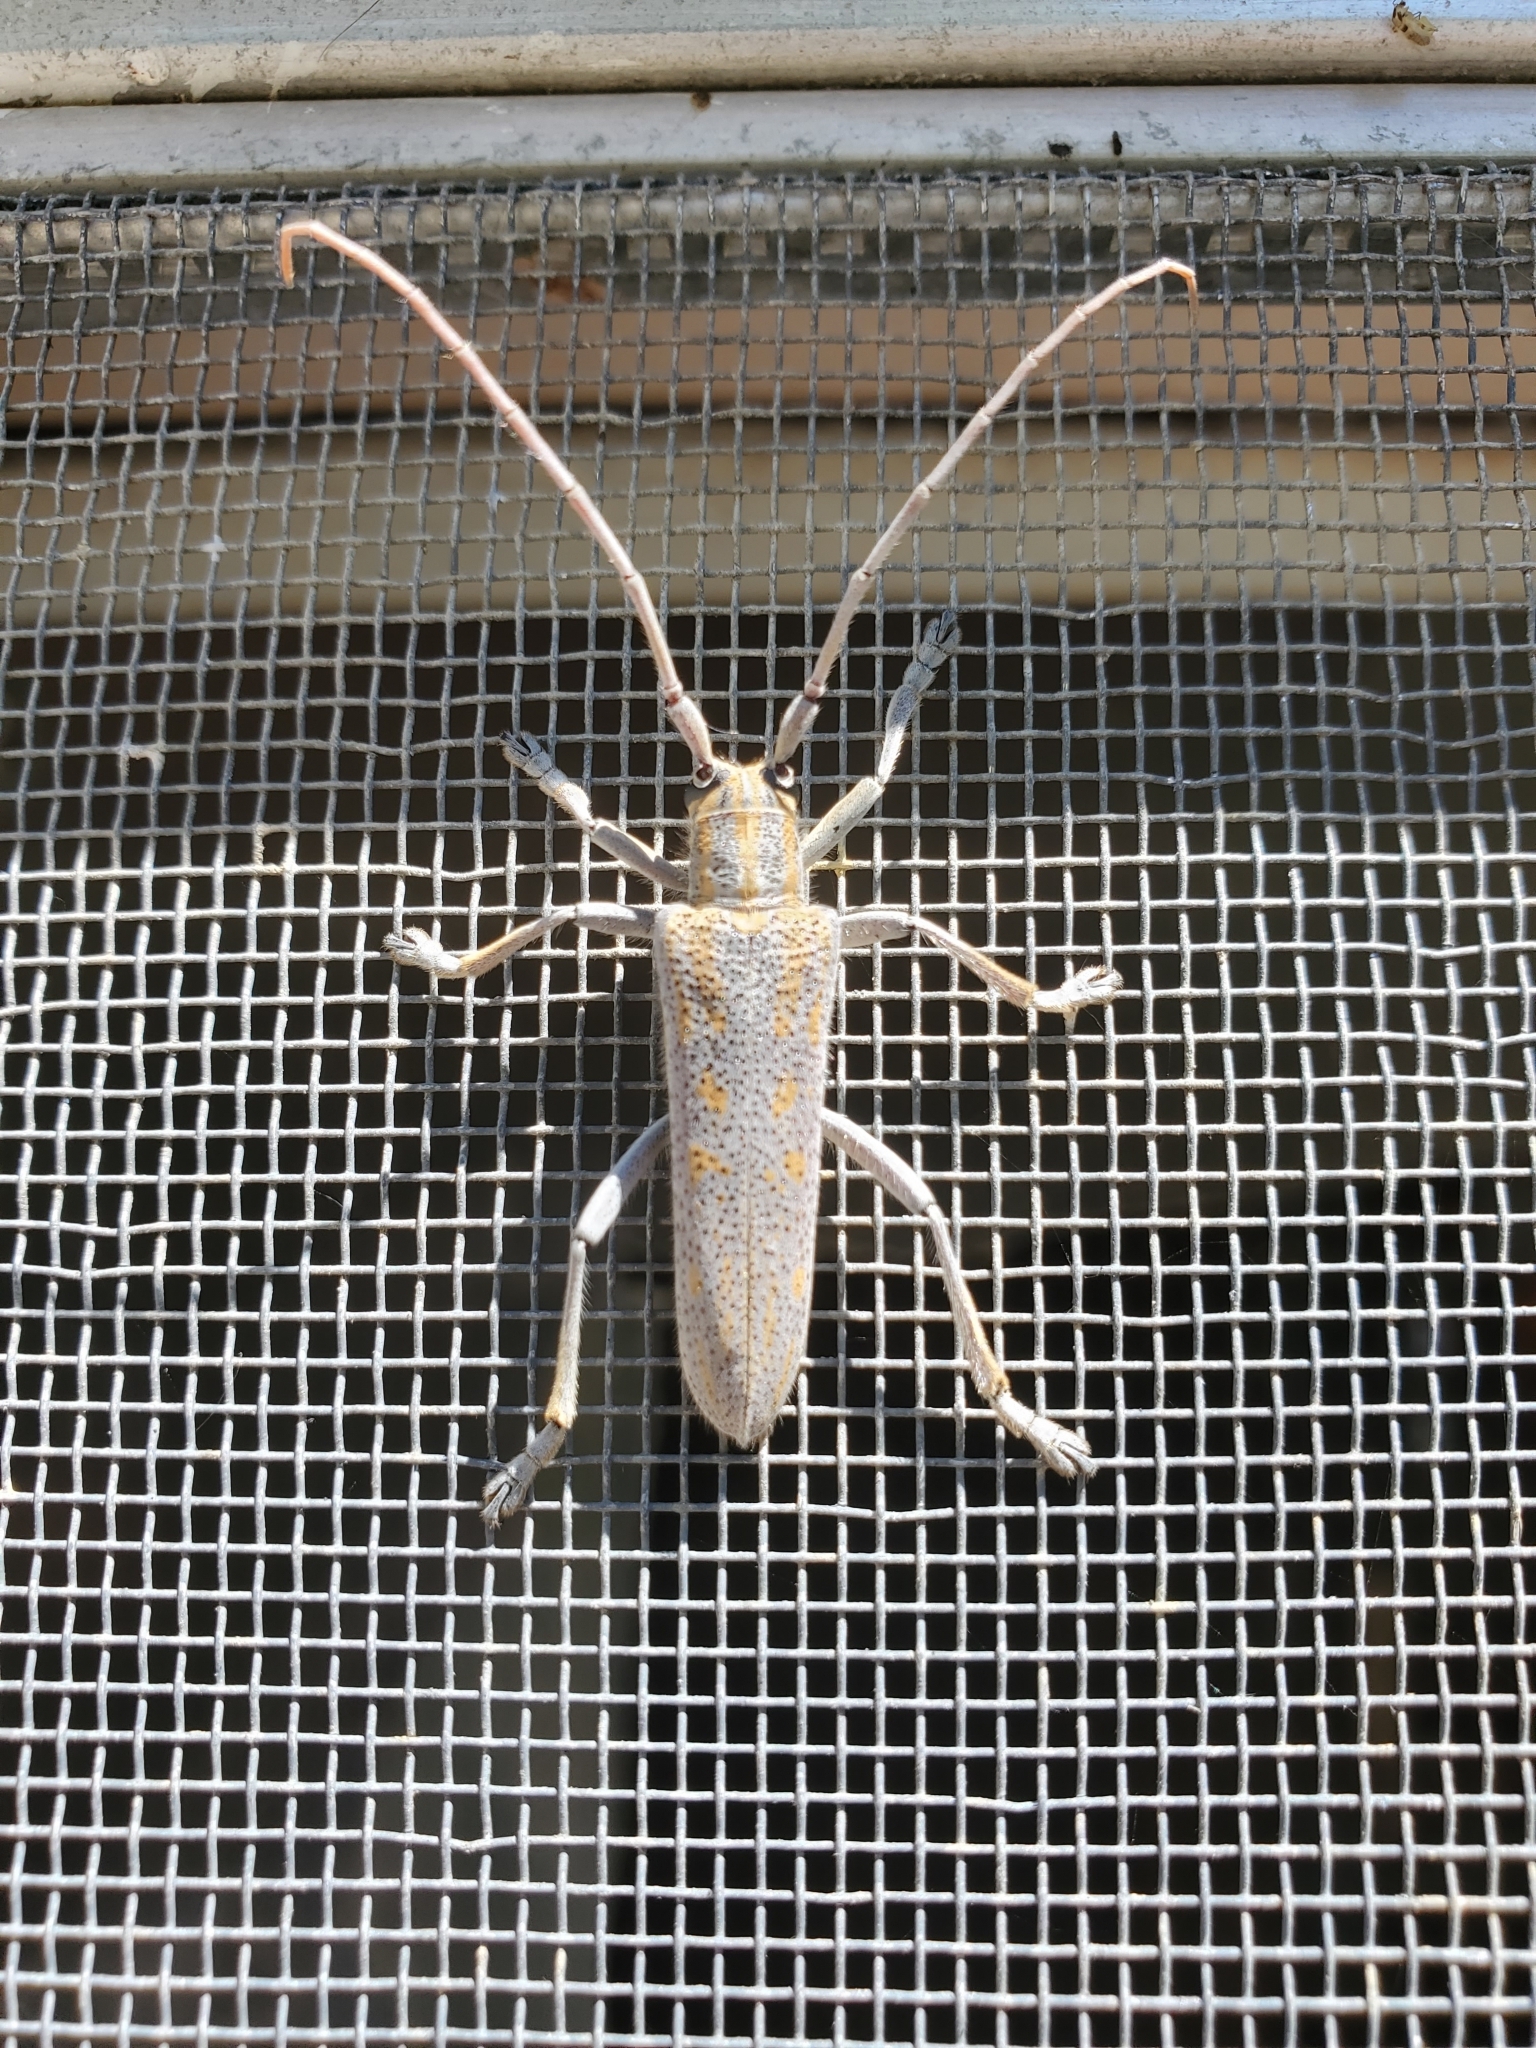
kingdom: Animalia
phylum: Arthropoda
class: Insecta
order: Coleoptera
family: Cerambycidae
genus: Saperda
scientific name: Saperda calcarata
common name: Poplar borer
